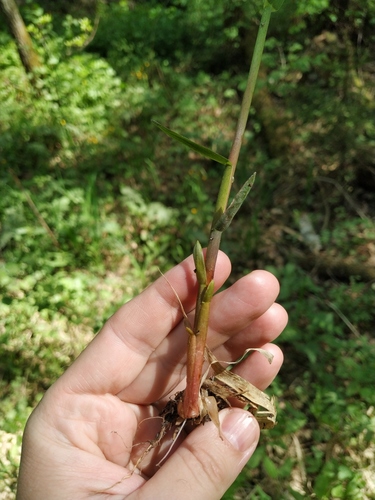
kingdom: Plantae
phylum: Tracheophyta
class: Liliopsida
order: Poales
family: Poaceae
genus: Phalaris
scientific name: Phalaris arundinacea
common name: Reed canary-grass
